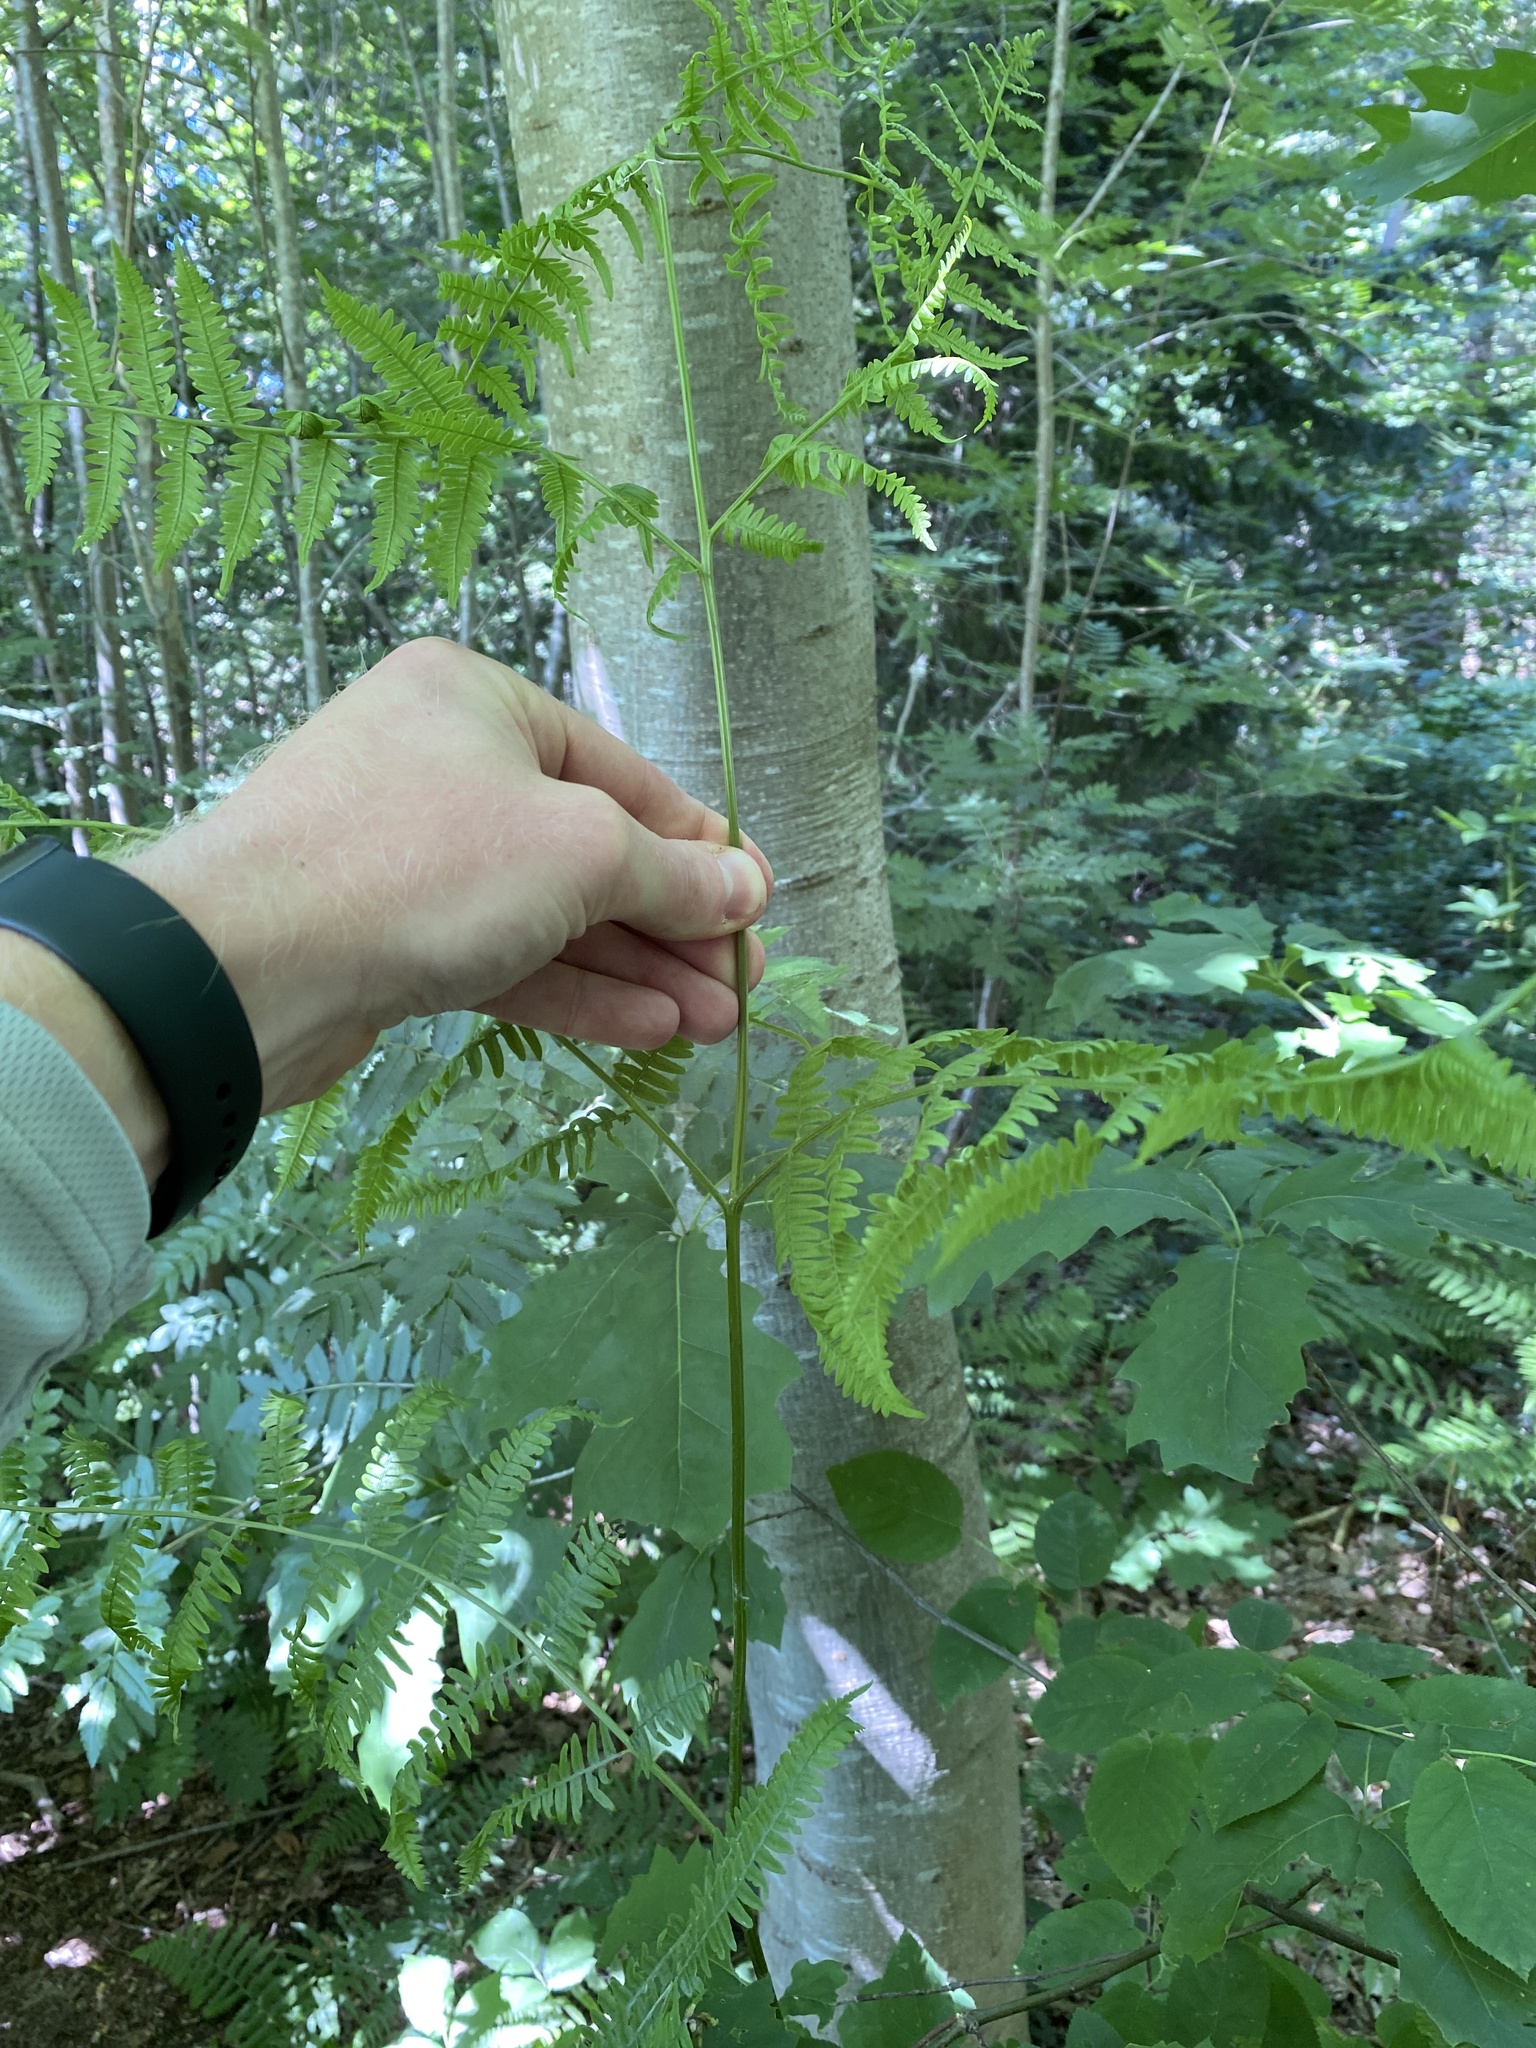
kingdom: Plantae
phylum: Tracheophyta
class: Polypodiopsida
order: Polypodiales
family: Dennstaedtiaceae
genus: Pteridium
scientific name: Pteridium aquilinum
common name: Bracken
